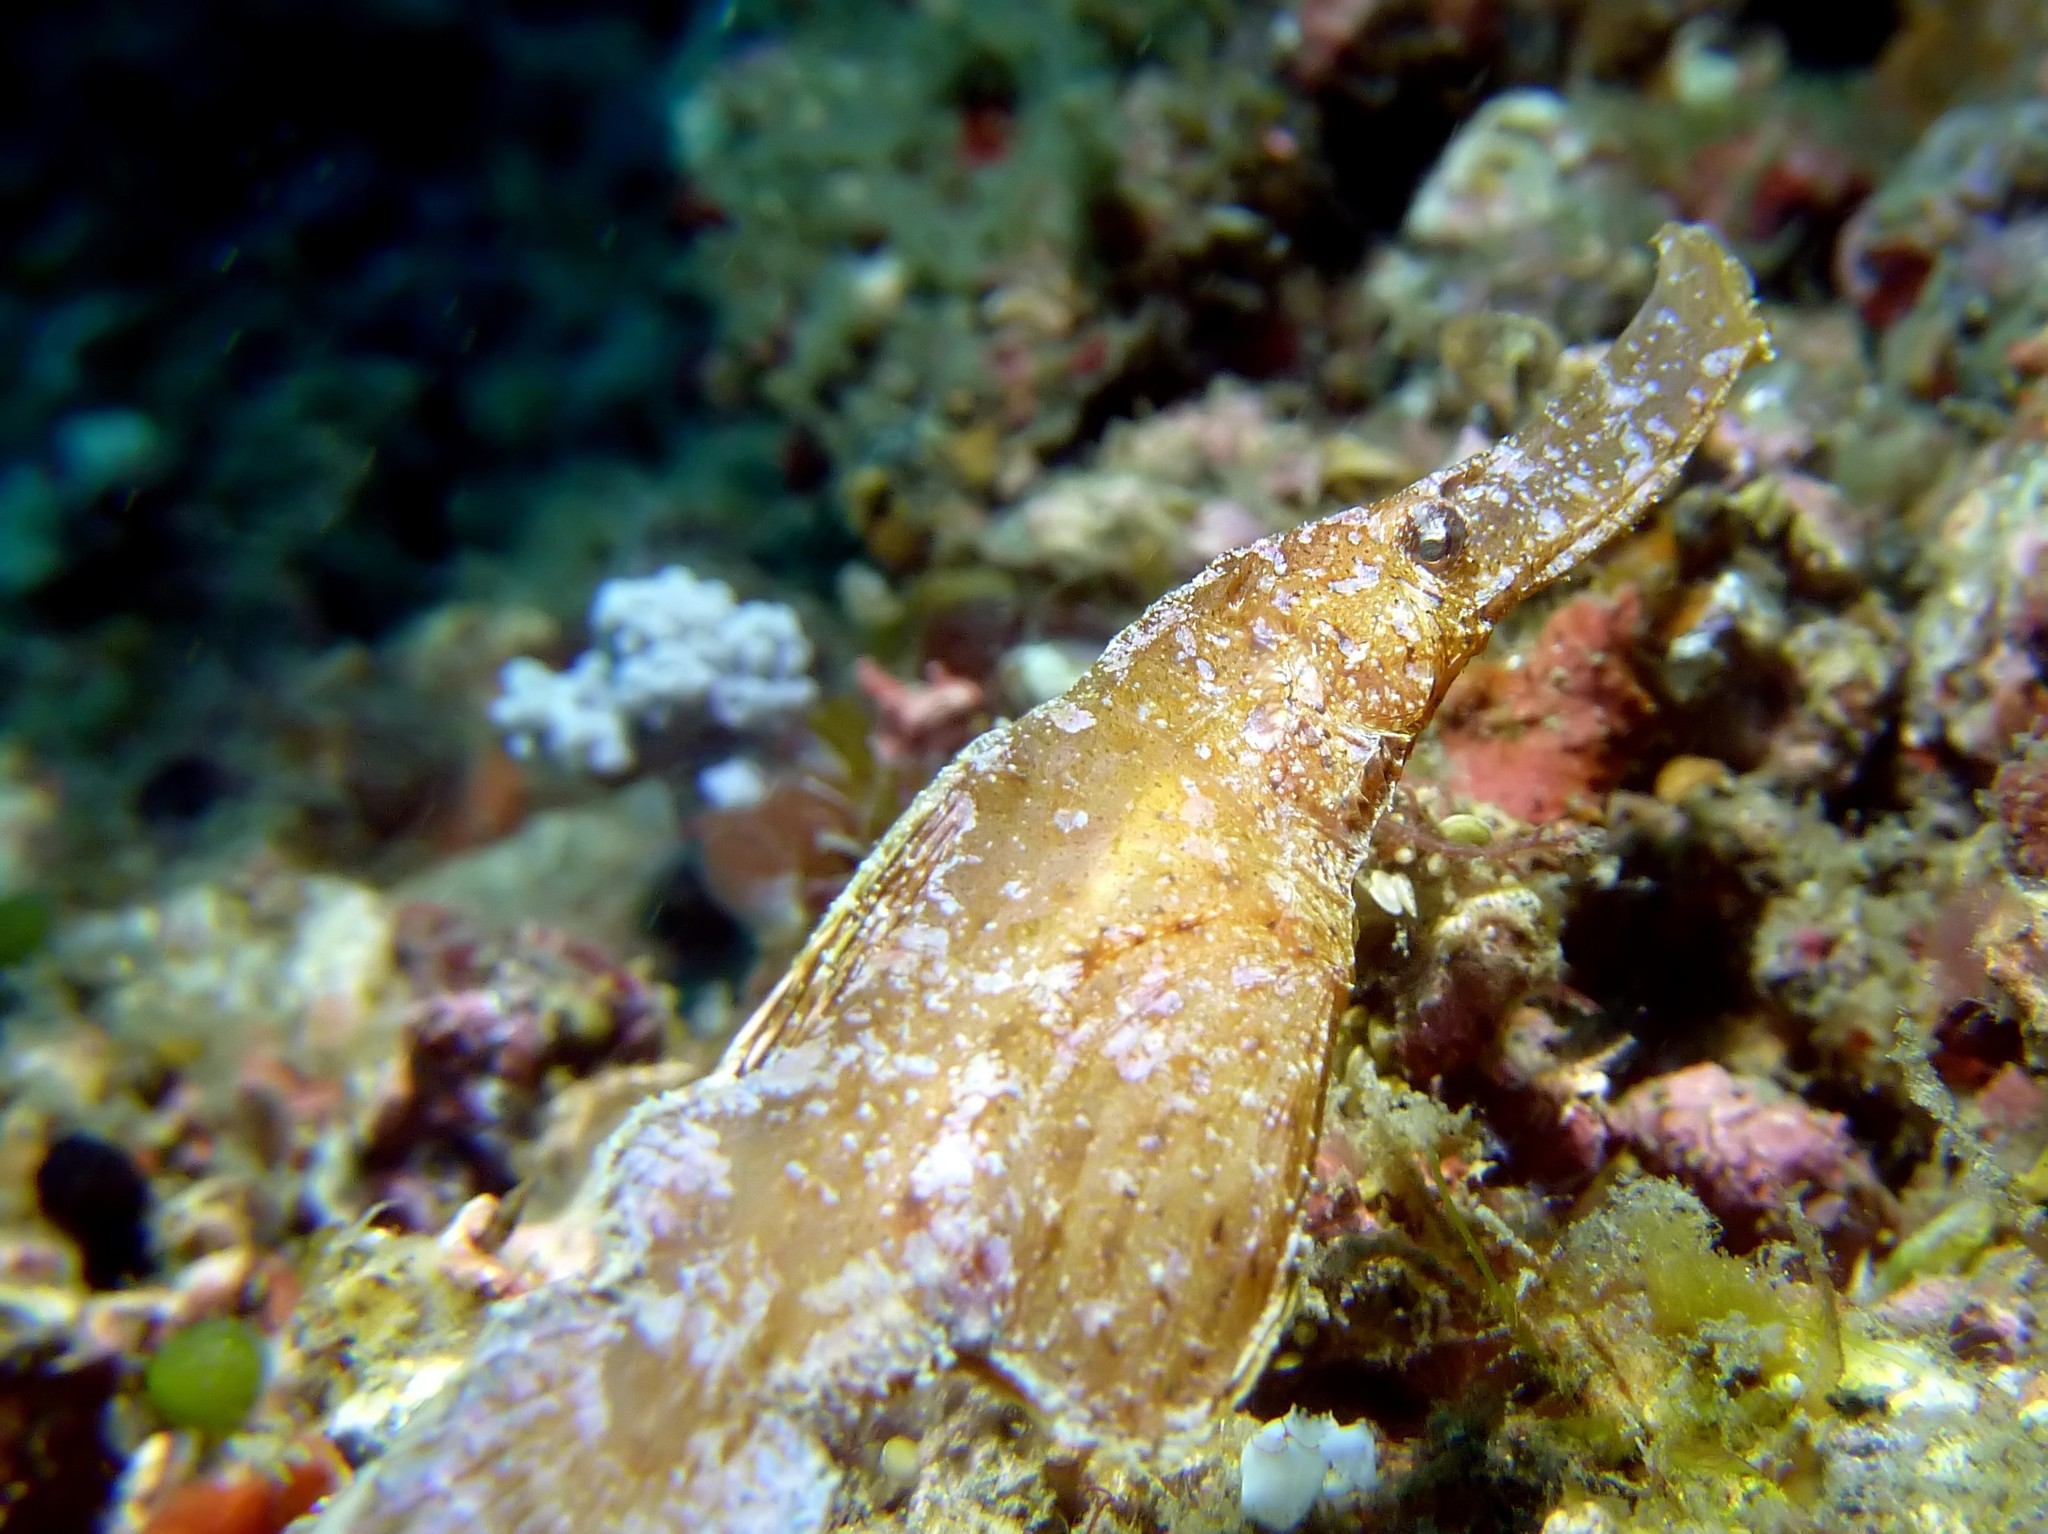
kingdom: Animalia
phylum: Chordata
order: Syngnathiformes
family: Solenostomidae
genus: Solenostomus
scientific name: Solenostomus cyanopterus
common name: Blue-finned ghost pipefish
